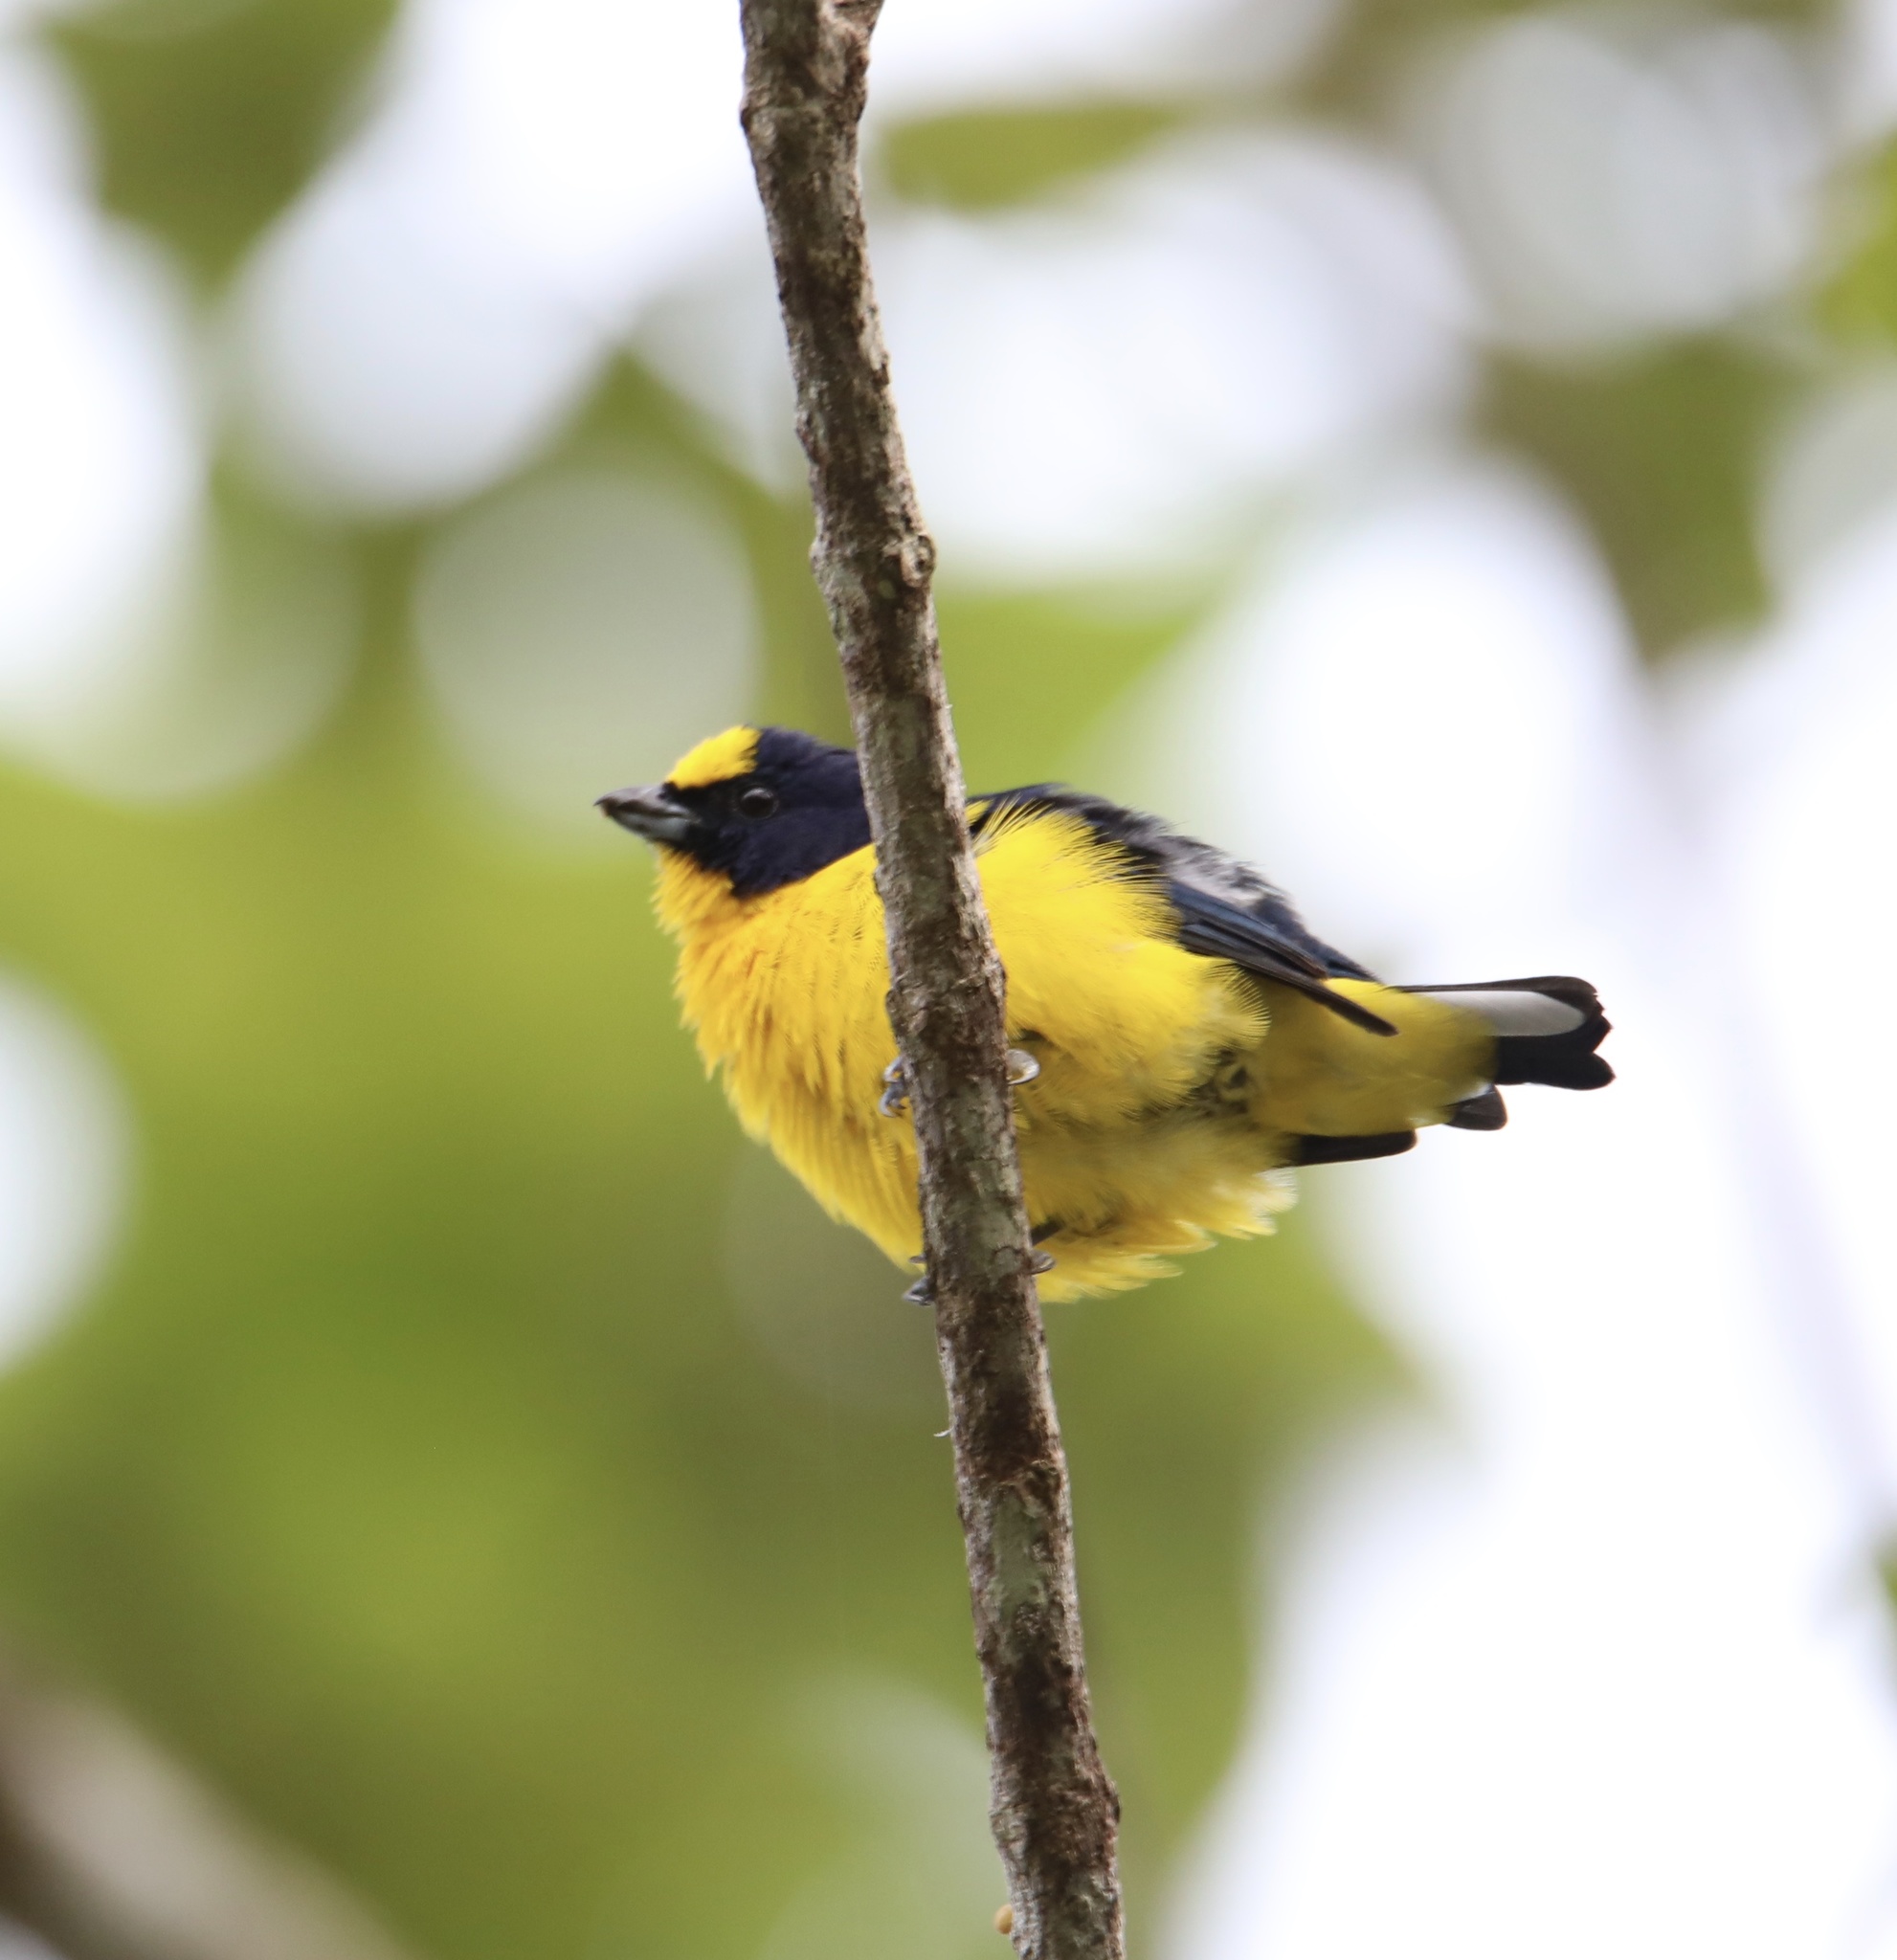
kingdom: Animalia
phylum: Chordata
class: Aves
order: Passeriformes
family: Fringillidae
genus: Euphonia
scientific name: Euphonia laniirostris
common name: Thick-billed euphonia
